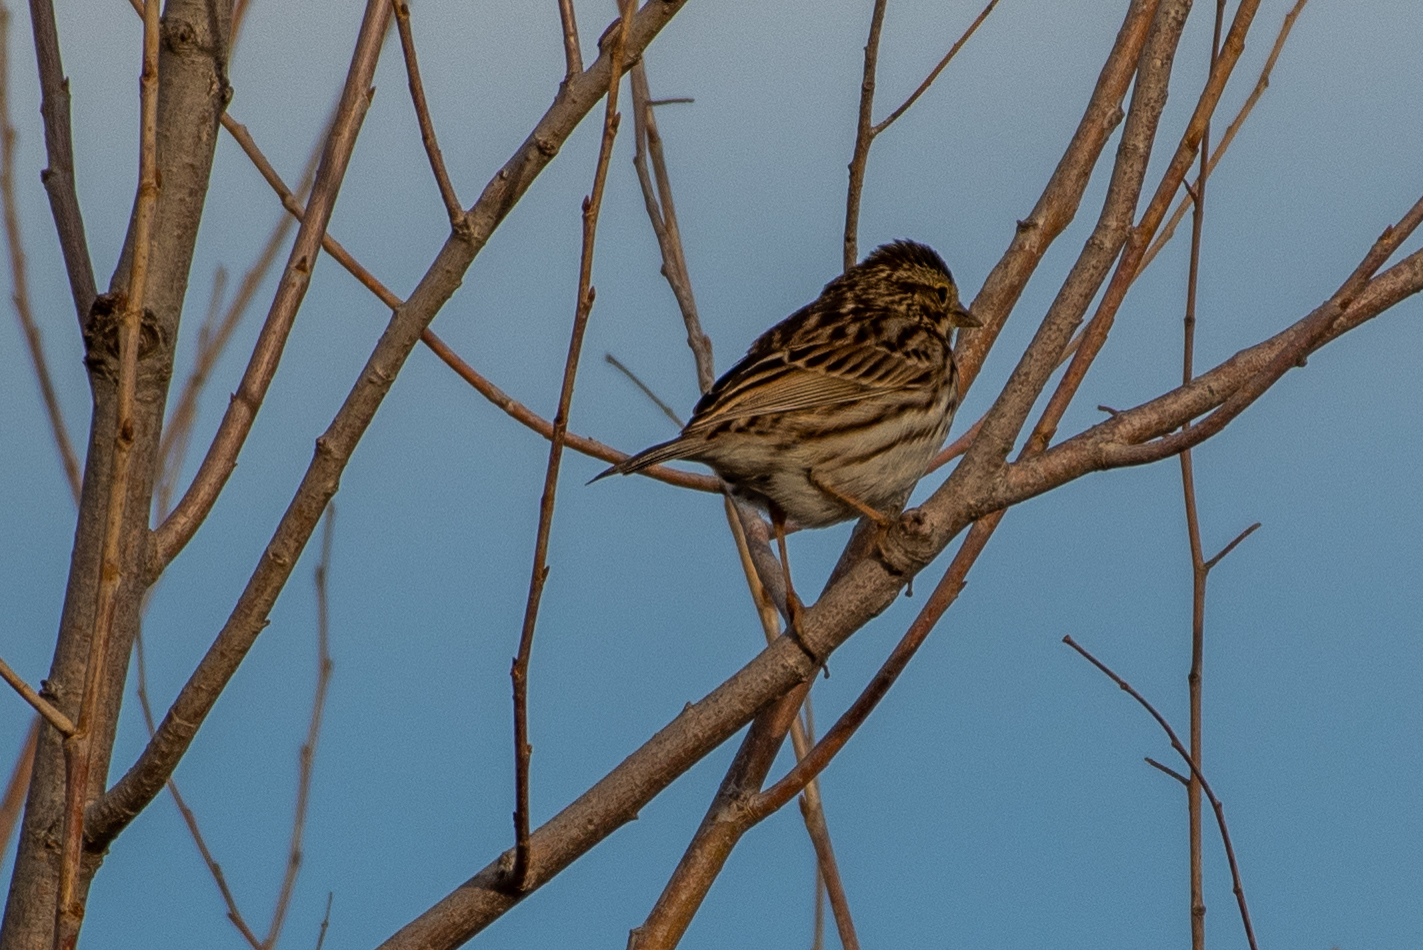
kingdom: Animalia
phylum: Chordata
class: Aves
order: Passeriformes
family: Passerellidae
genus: Passerculus
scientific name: Passerculus sandwichensis
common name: Savannah sparrow
